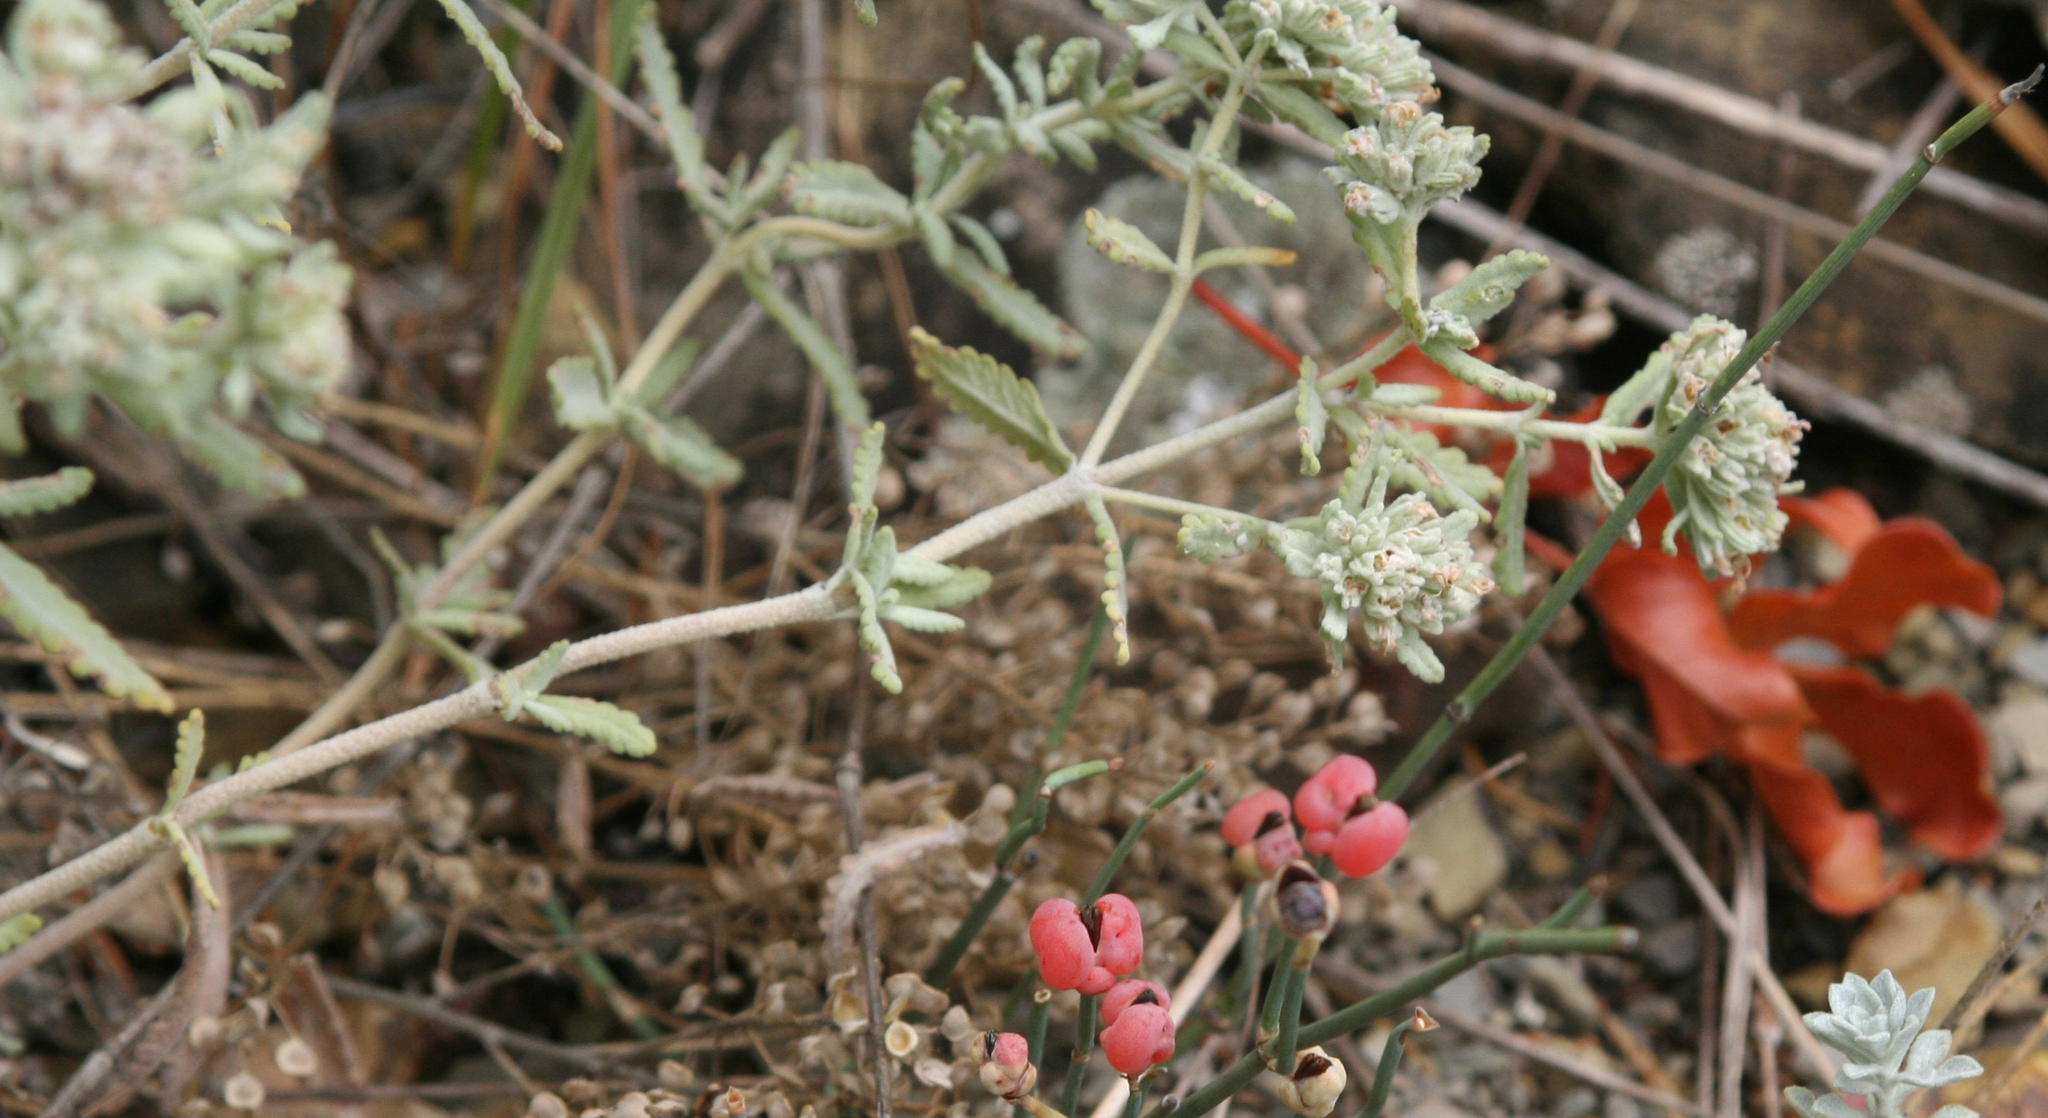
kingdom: Plantae
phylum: Tracheophyta
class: Magnoliopsida
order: Lamiales
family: Lamiaceae
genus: Teucrium
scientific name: Teucrium polium
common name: Poley
